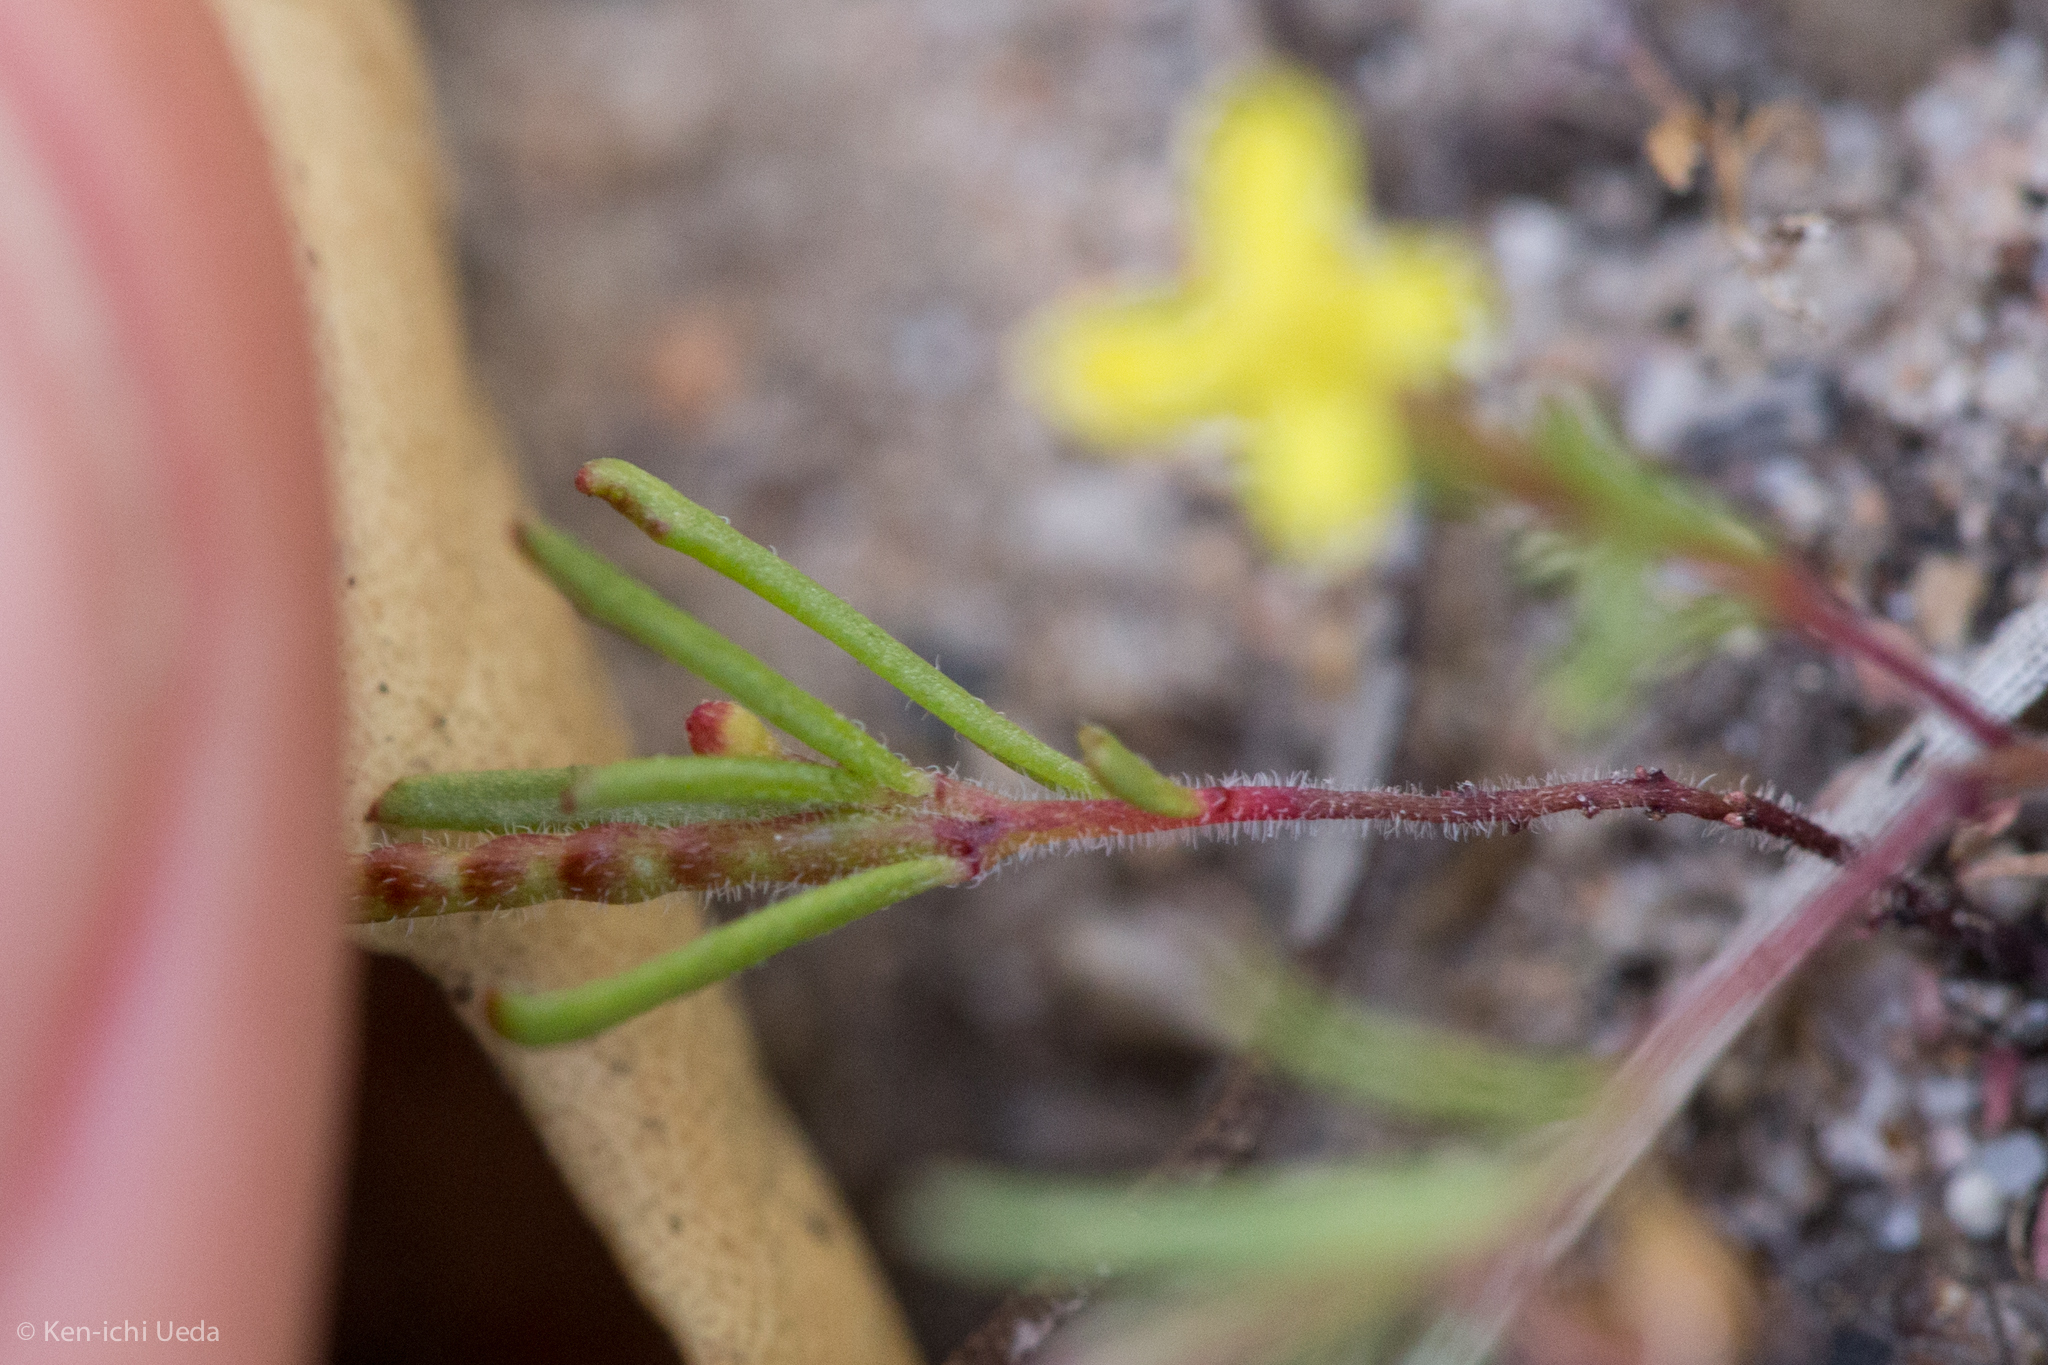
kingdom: Plantae
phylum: Tracheophyta
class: Magnoliopsida
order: Myrtales
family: Onagraceae
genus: Camissonia
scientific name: Camissonia contorta
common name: Contorted suncup
